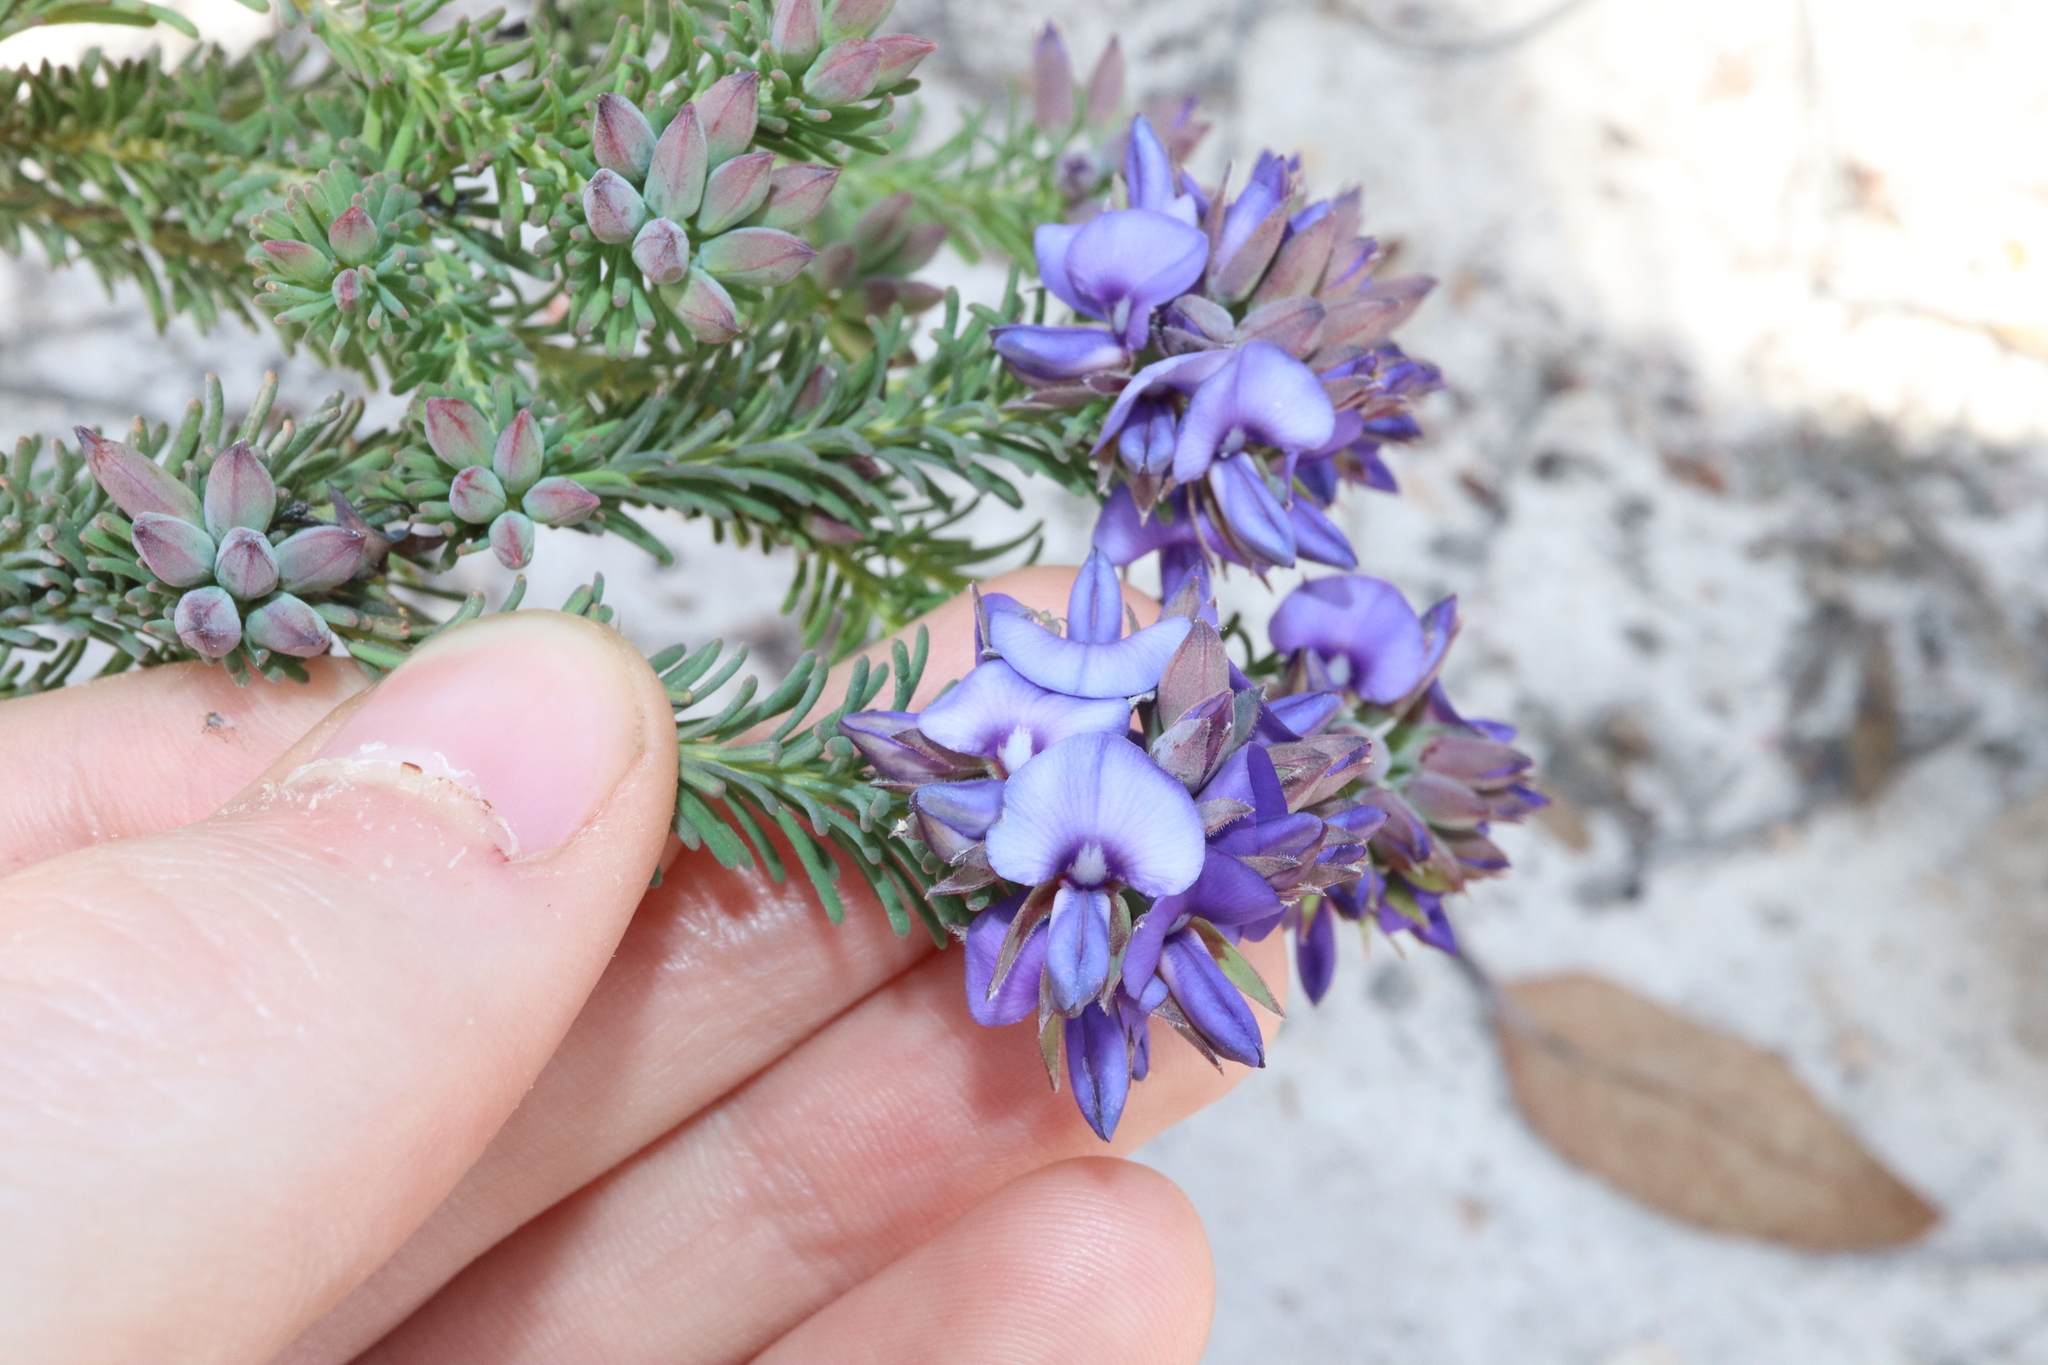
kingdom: Plantae
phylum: Tracheophyta
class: Magnoliopsida
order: Fabales
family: Fabaceae
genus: Gompholobium
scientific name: Gompholobium confertum
